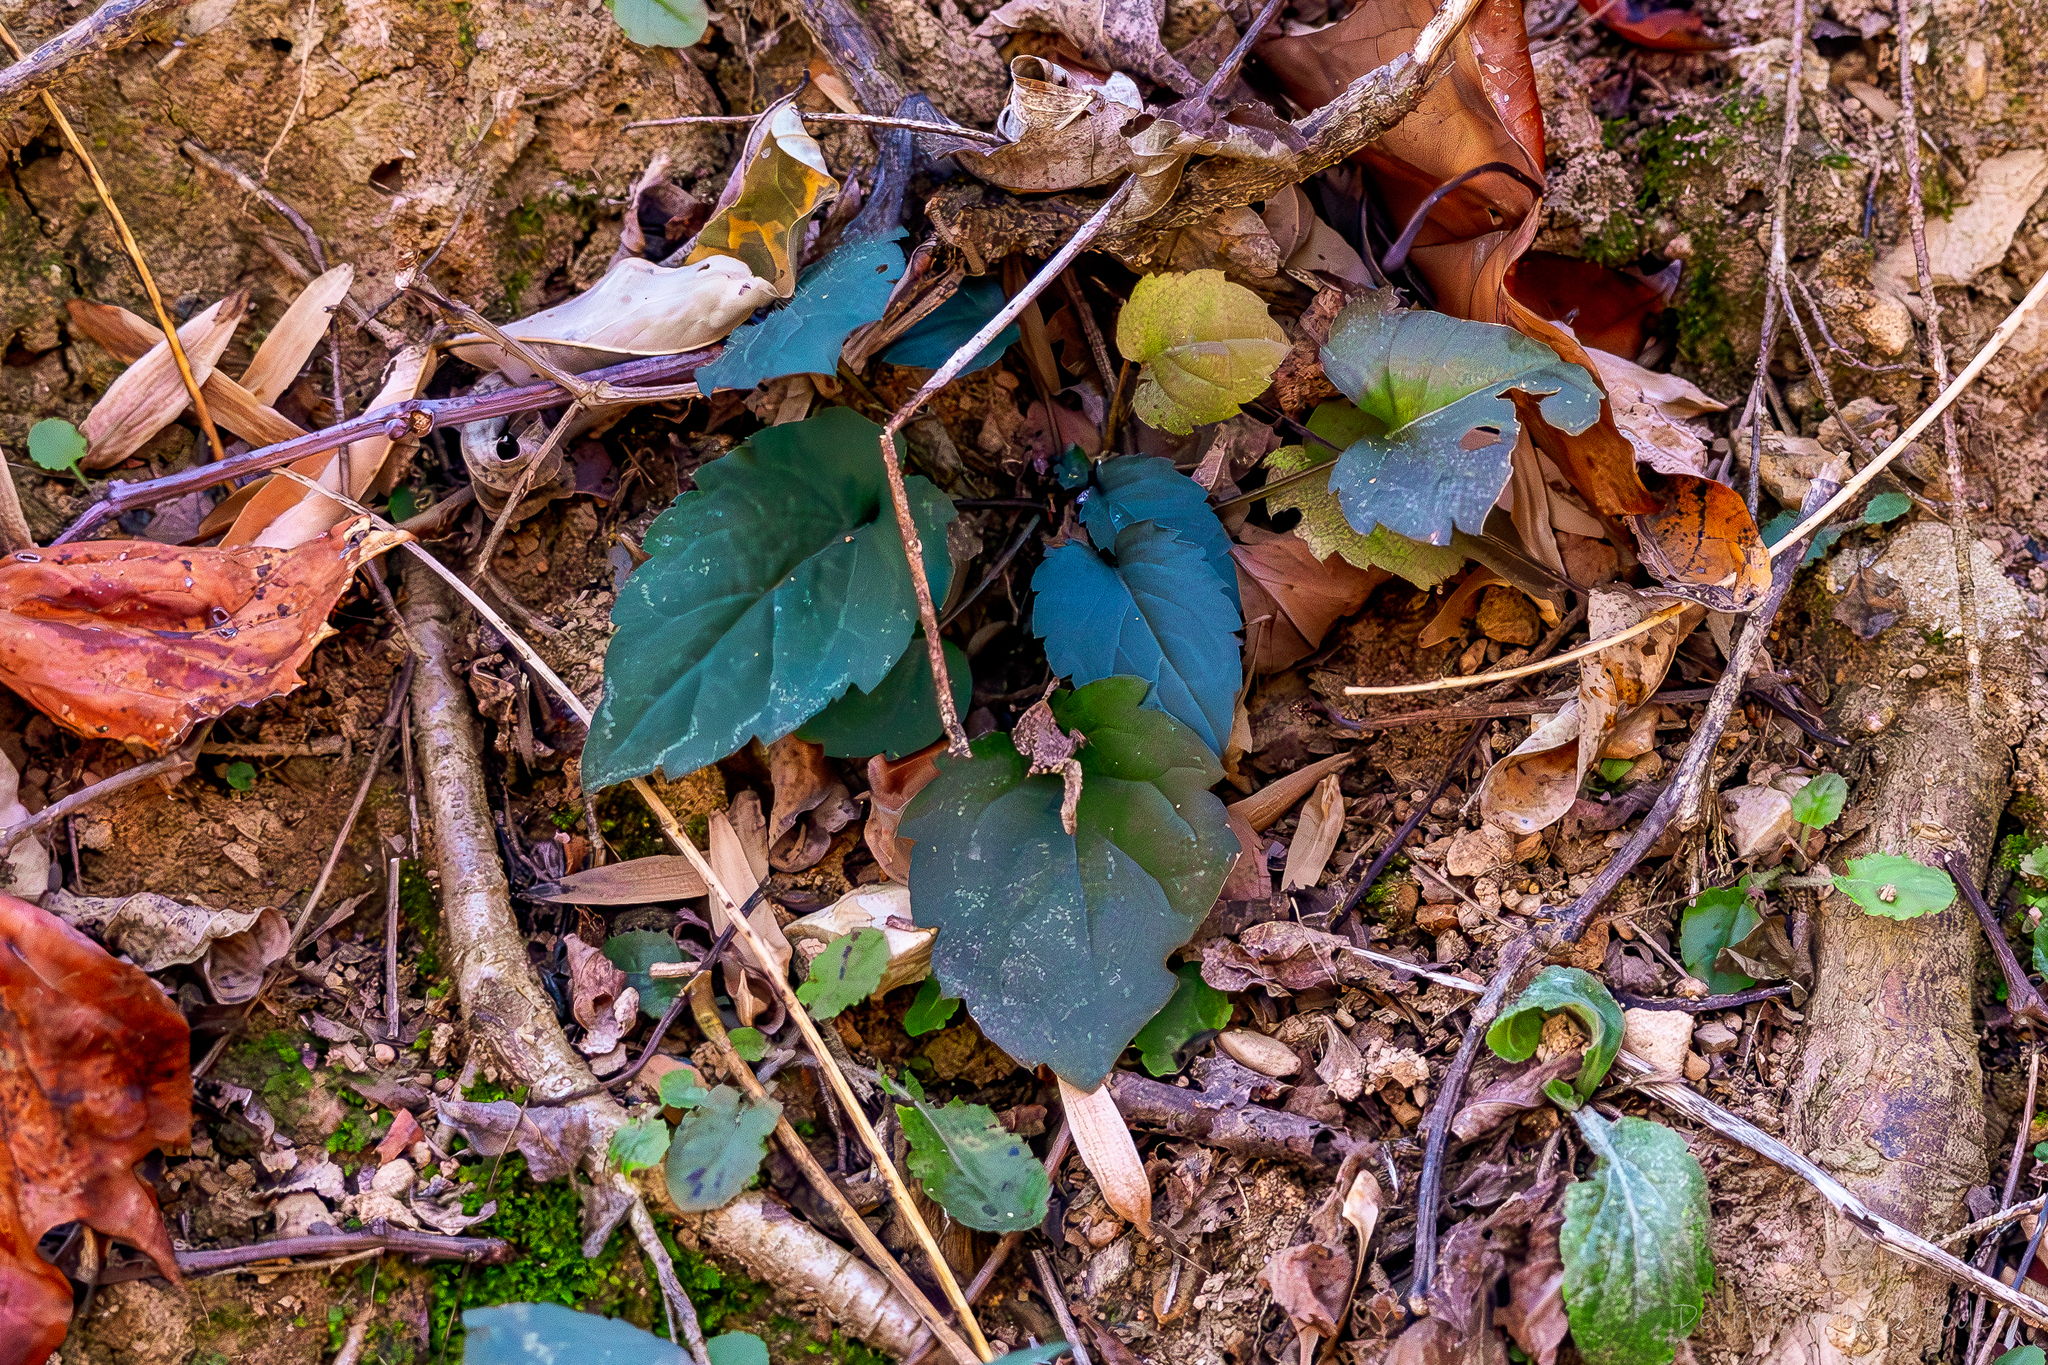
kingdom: Plantae
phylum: Tracheophyta
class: Magnoliopsida
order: Asterales
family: Asteraceae
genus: Eurybia
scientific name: Eurybia divaricata
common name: White wood aster
